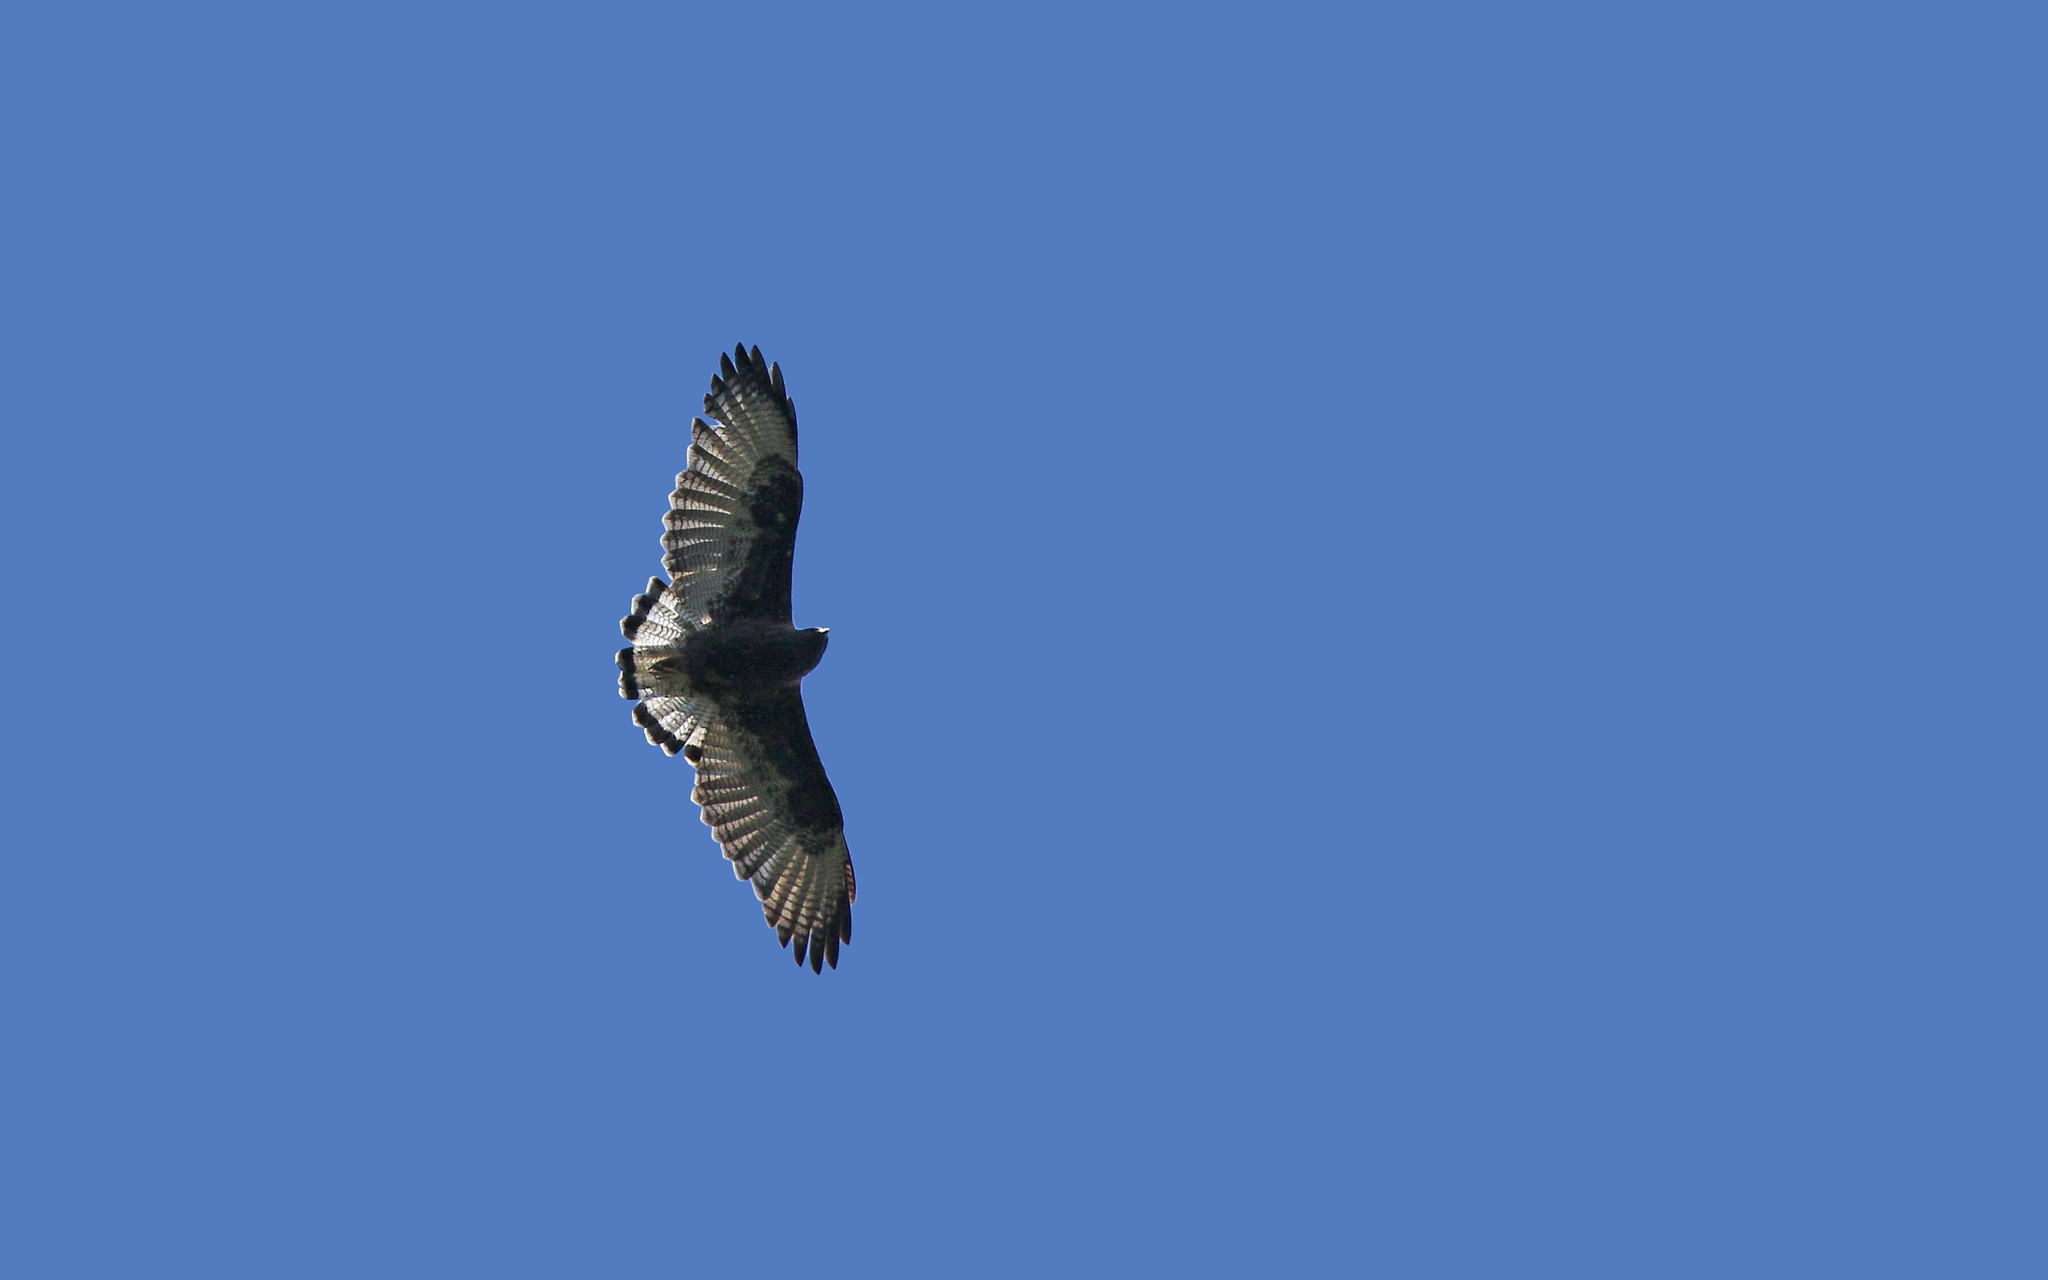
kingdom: Animalia
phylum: Chordata
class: Aves
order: Accipitriformes
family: Accipitridae
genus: Buteo
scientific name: Buteo polyosoma
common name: Variable hawk
